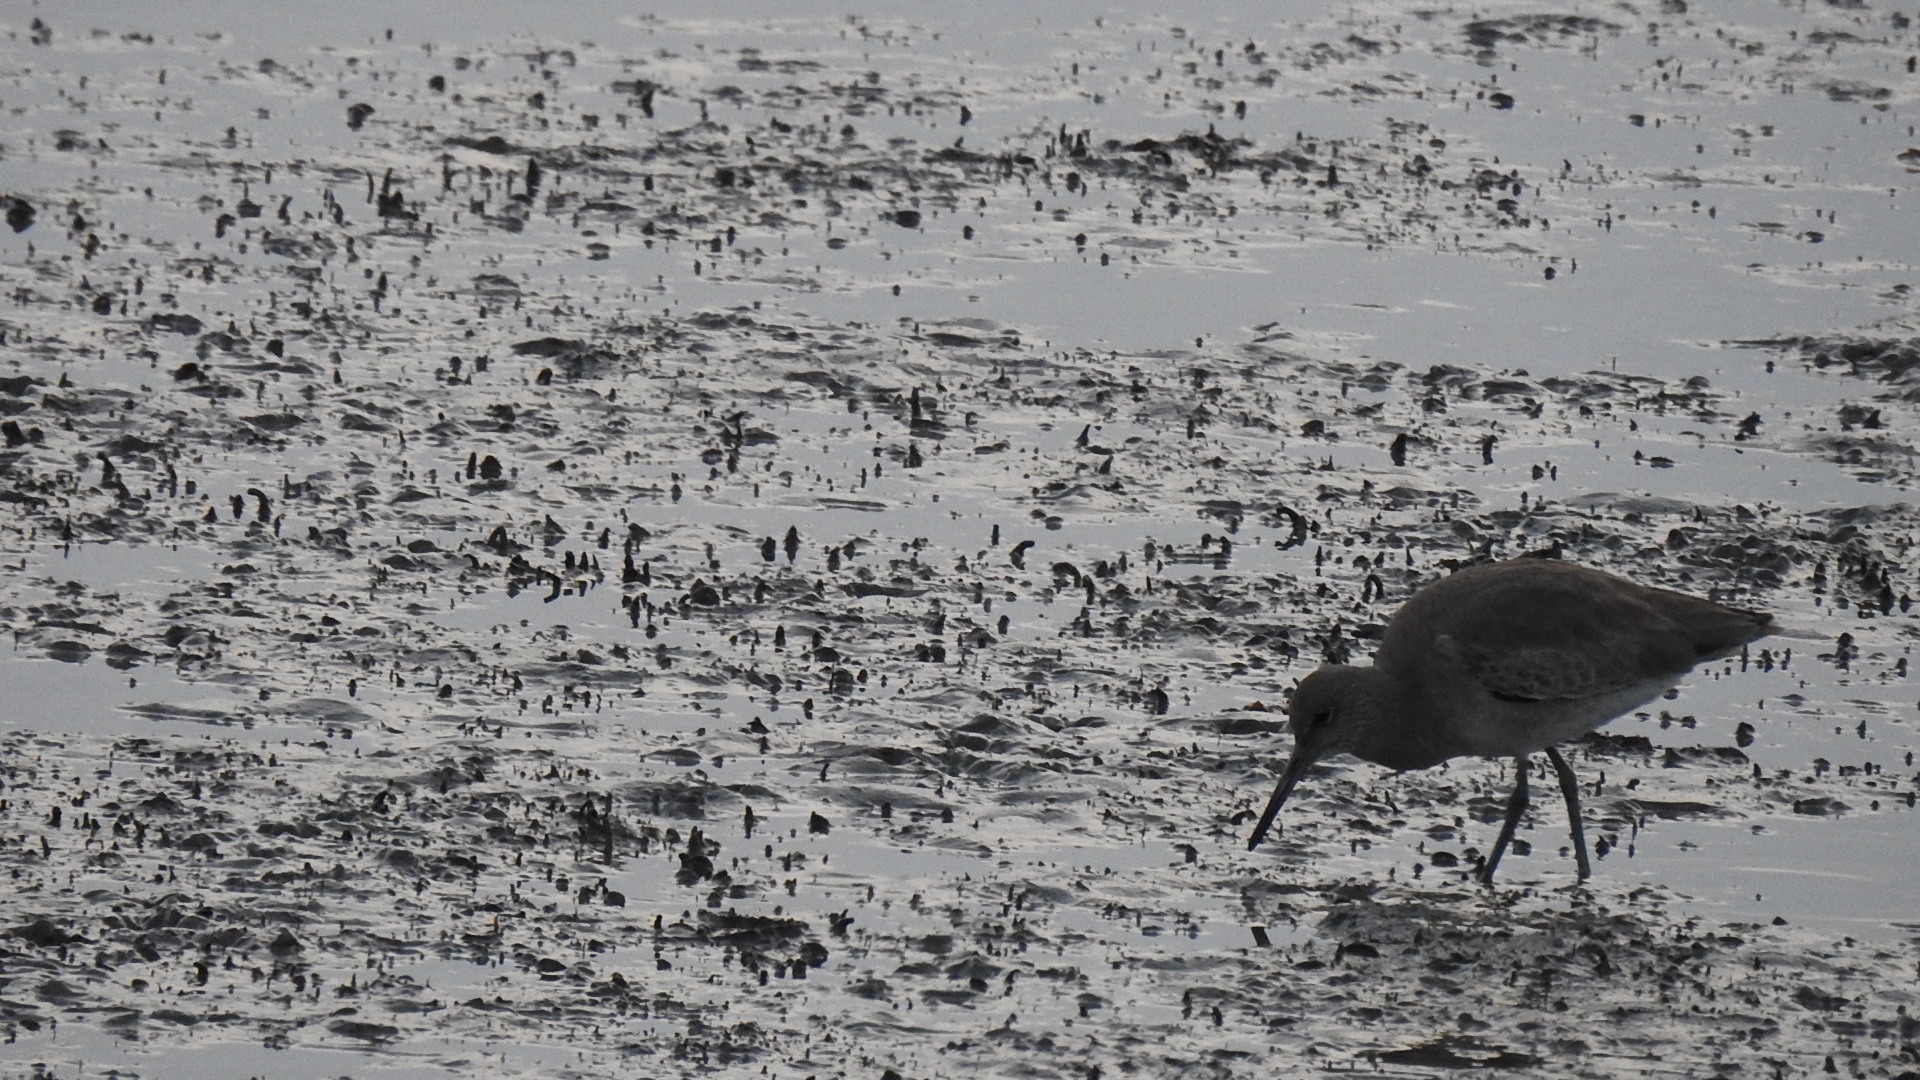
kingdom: Animalia
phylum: Chordata
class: Aves
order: Charadriiformes
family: Scolopacidae
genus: Tringa
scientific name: Tringa semipalmata
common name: Willet
